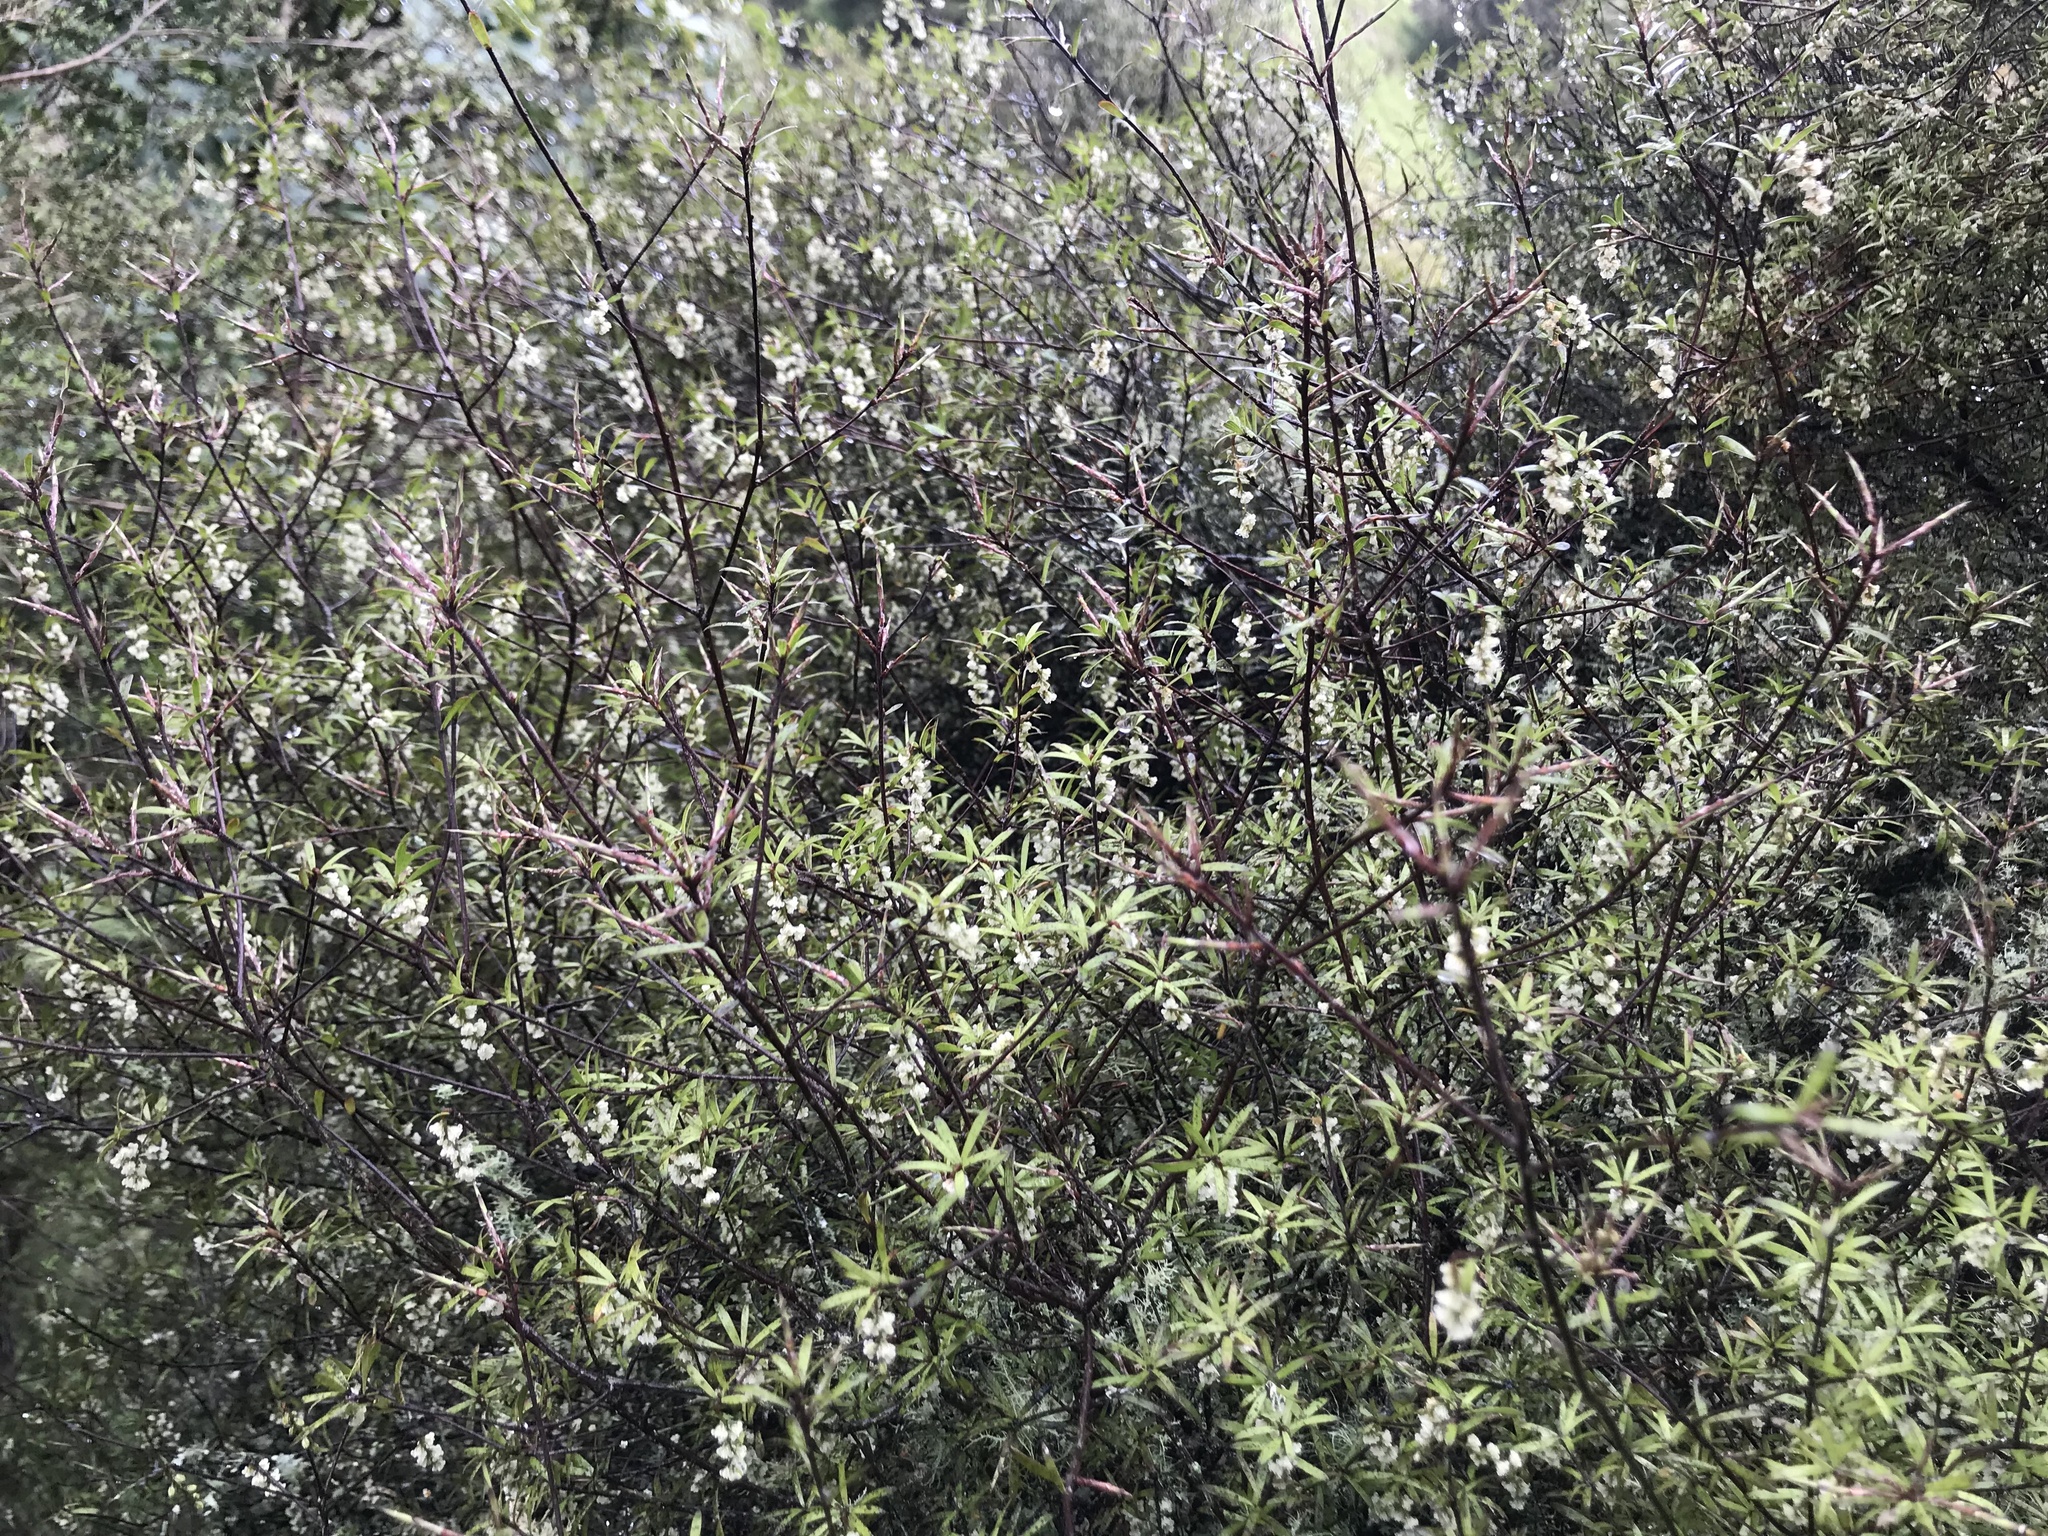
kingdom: Plantae
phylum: Tracheophyta
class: Magnoliopsida
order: Ericales
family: Ericaceae
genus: Leucopogon
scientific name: Leucopogon fasciculatus
